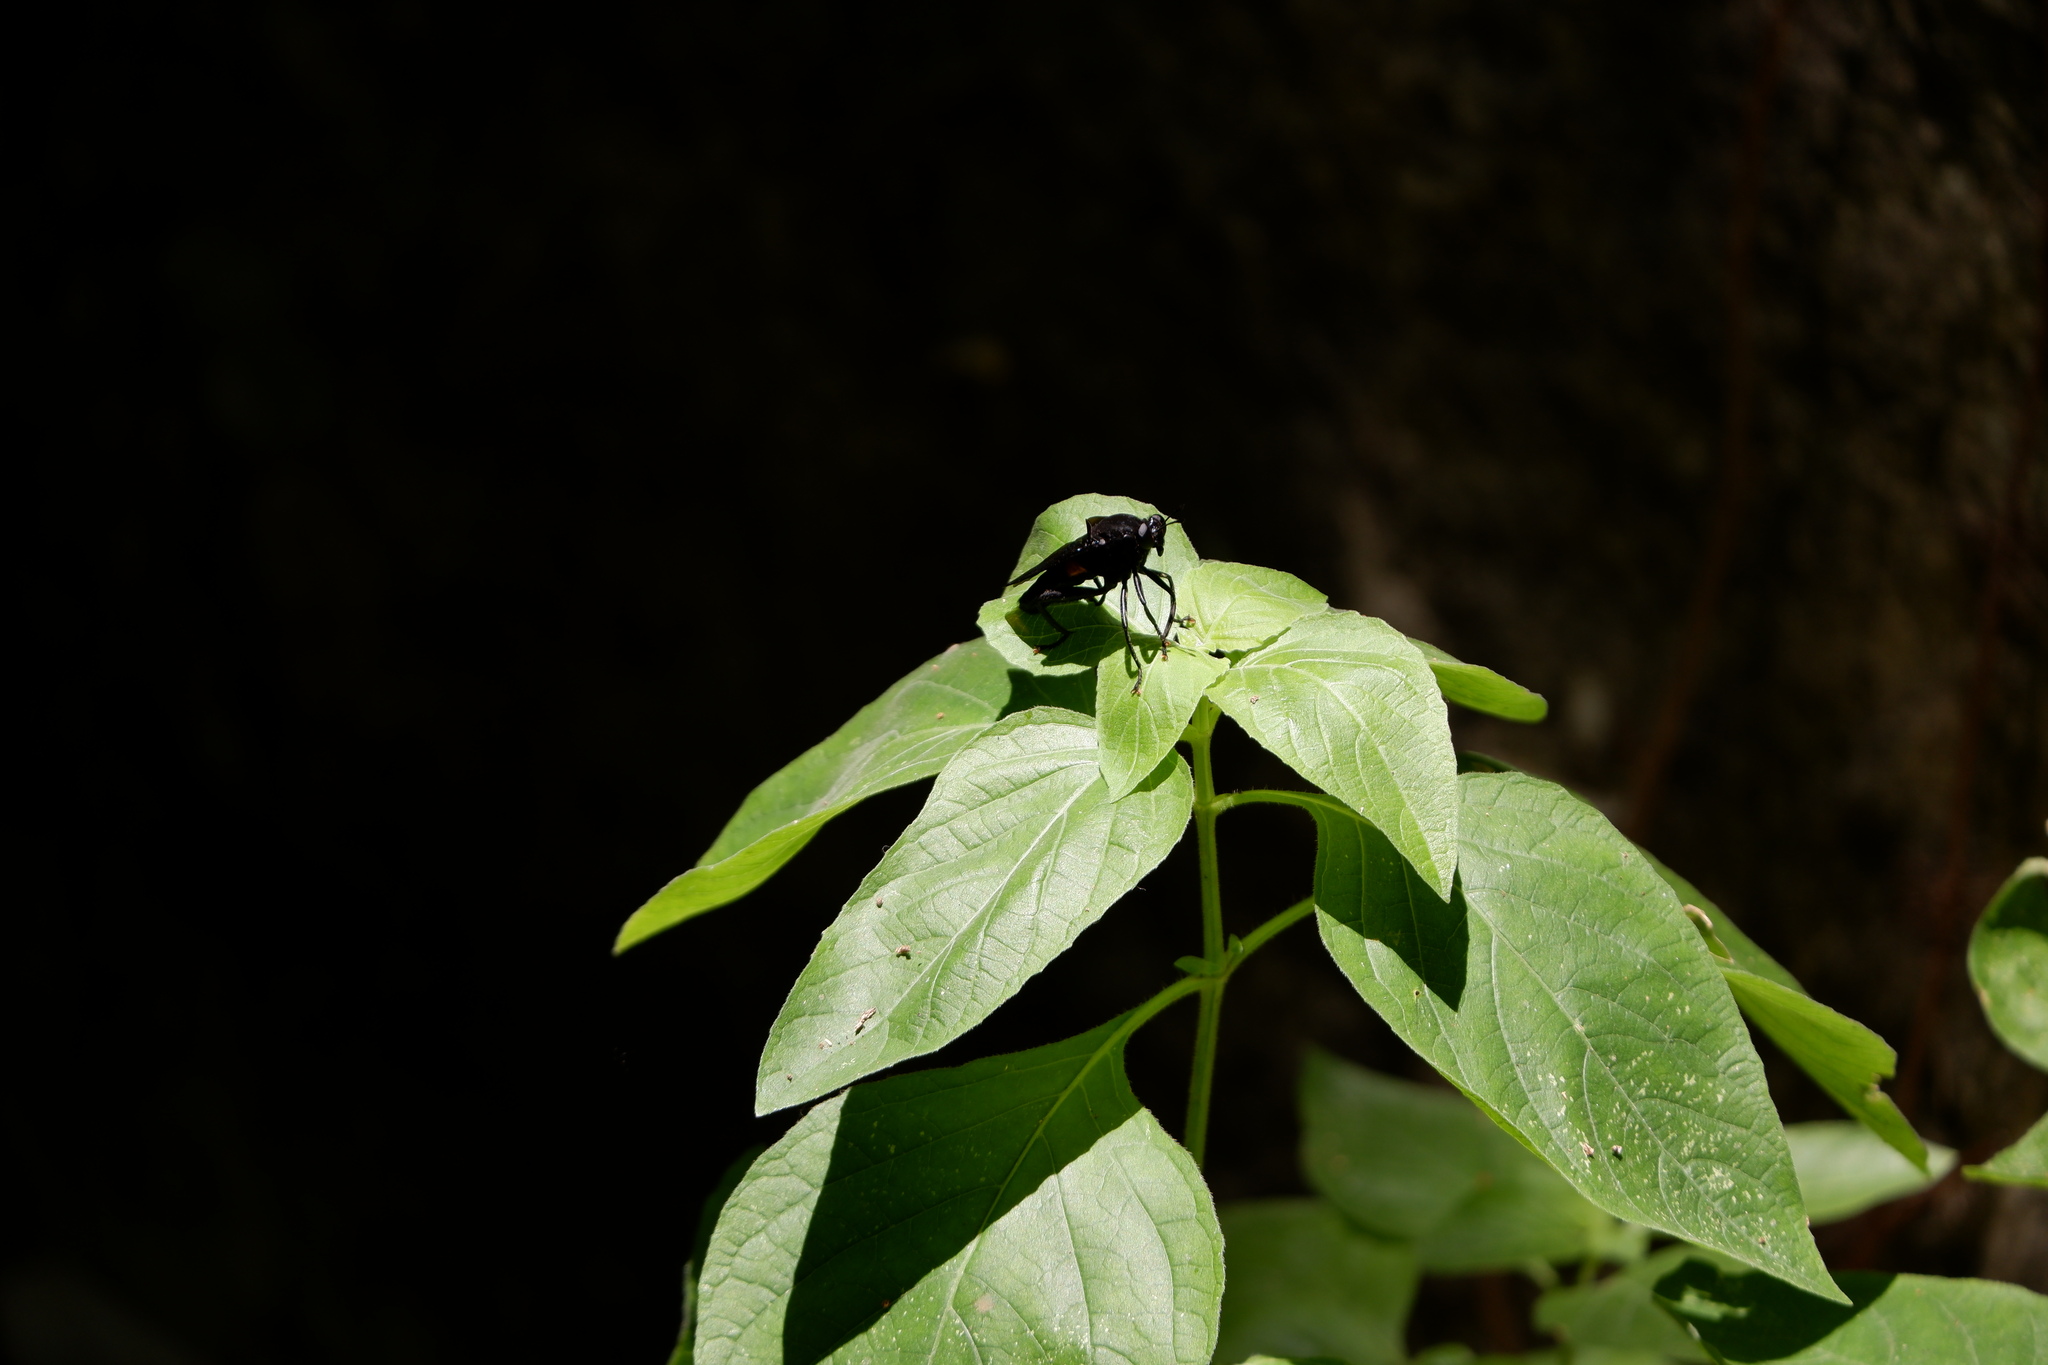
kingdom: Animalia
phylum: Arthropoda
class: Insecta
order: Diptera
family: Mydidae
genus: Mydas
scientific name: Mydas clavatus
